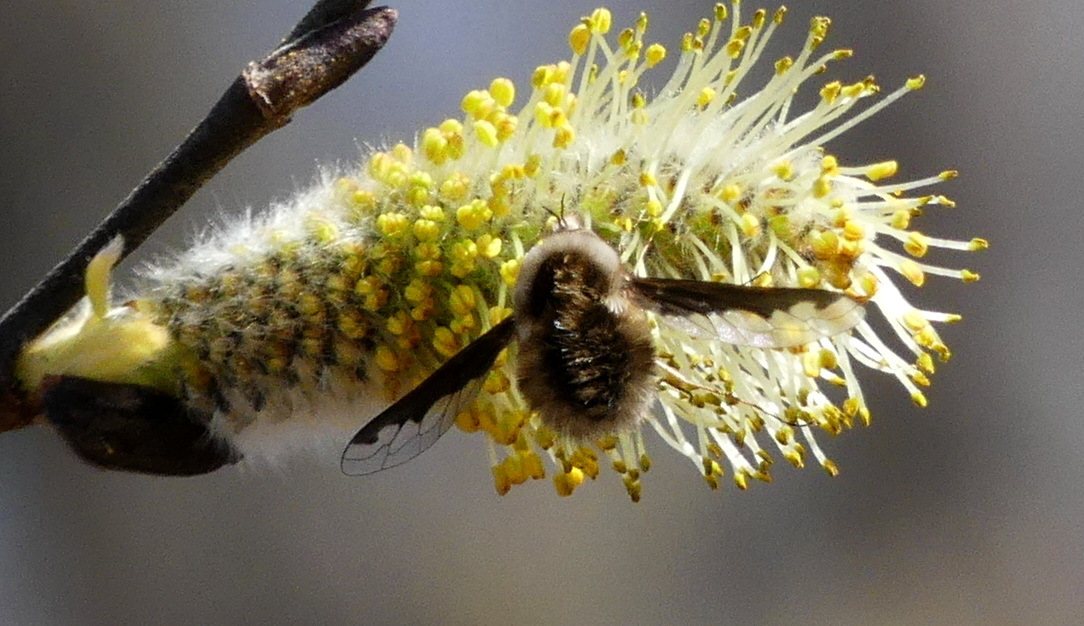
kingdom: Animalia
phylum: Arthropoda
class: Insecta
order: Diptera
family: Bombyliidae
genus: Bombylius
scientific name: Bombylius major
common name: Bee fly
